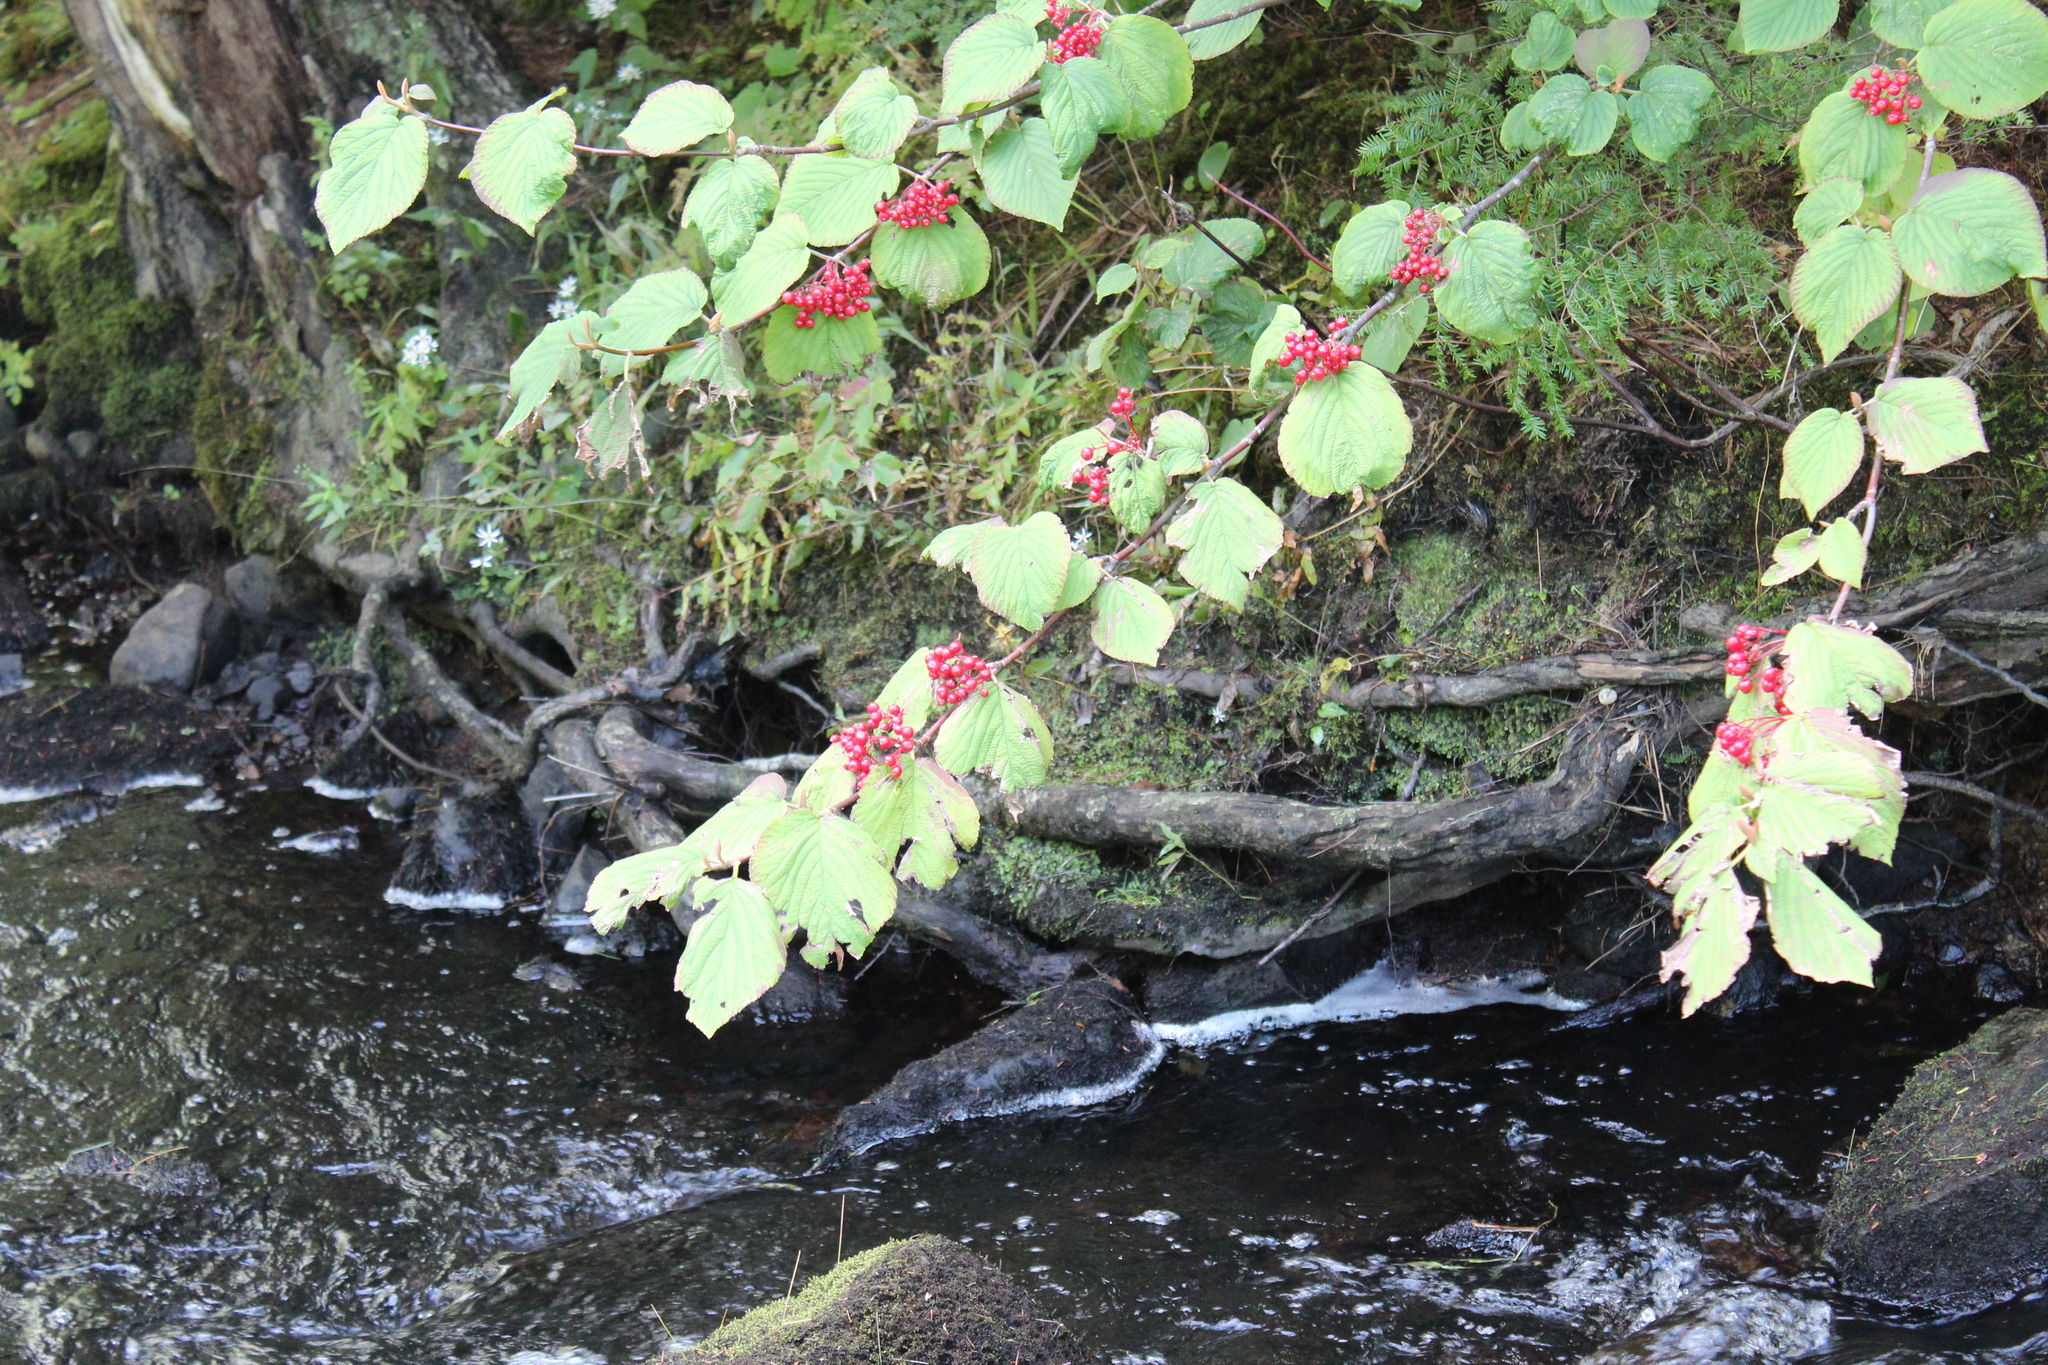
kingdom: Plantae
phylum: Tracheophyta
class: Magnoliopsida
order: Dipsacales
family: Viburnaceae
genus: Viburnum
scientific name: Viburnum lantanoides
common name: Hobblebush
